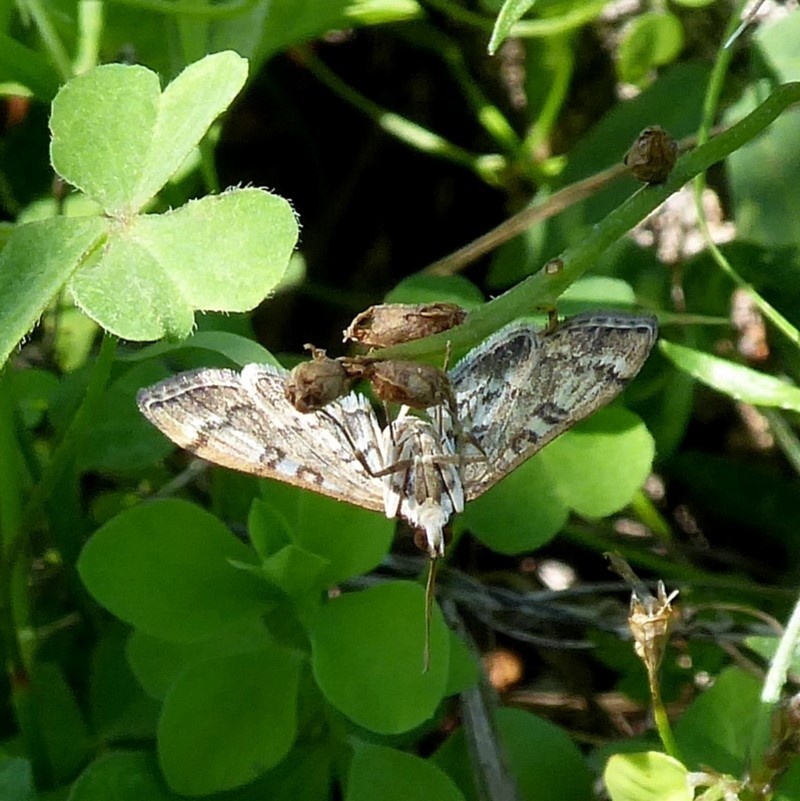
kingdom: Animalia
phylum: Arthropoda
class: Insecta
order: Lepidoptera
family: Crambidae
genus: Nacoleia
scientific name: Nacoleia rhoeoalis
